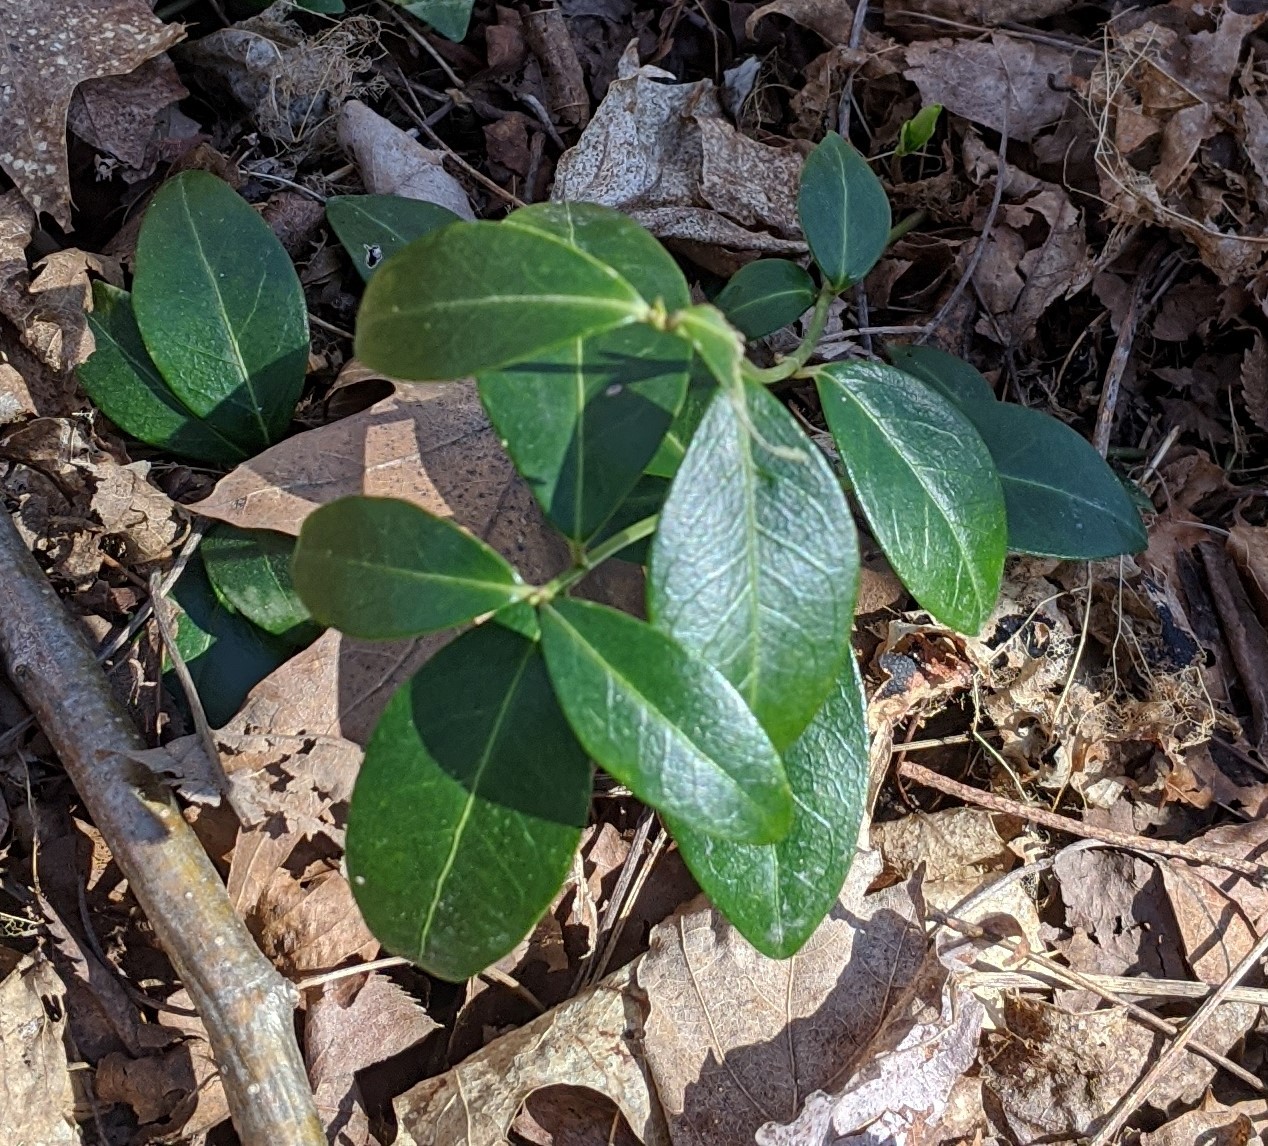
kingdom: Plantae
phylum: Tracheophyta
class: Magnoliopsida
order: Gentianales
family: Apocynaceae
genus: Vinca
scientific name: Vinca minor
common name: Lesser periwinkle
